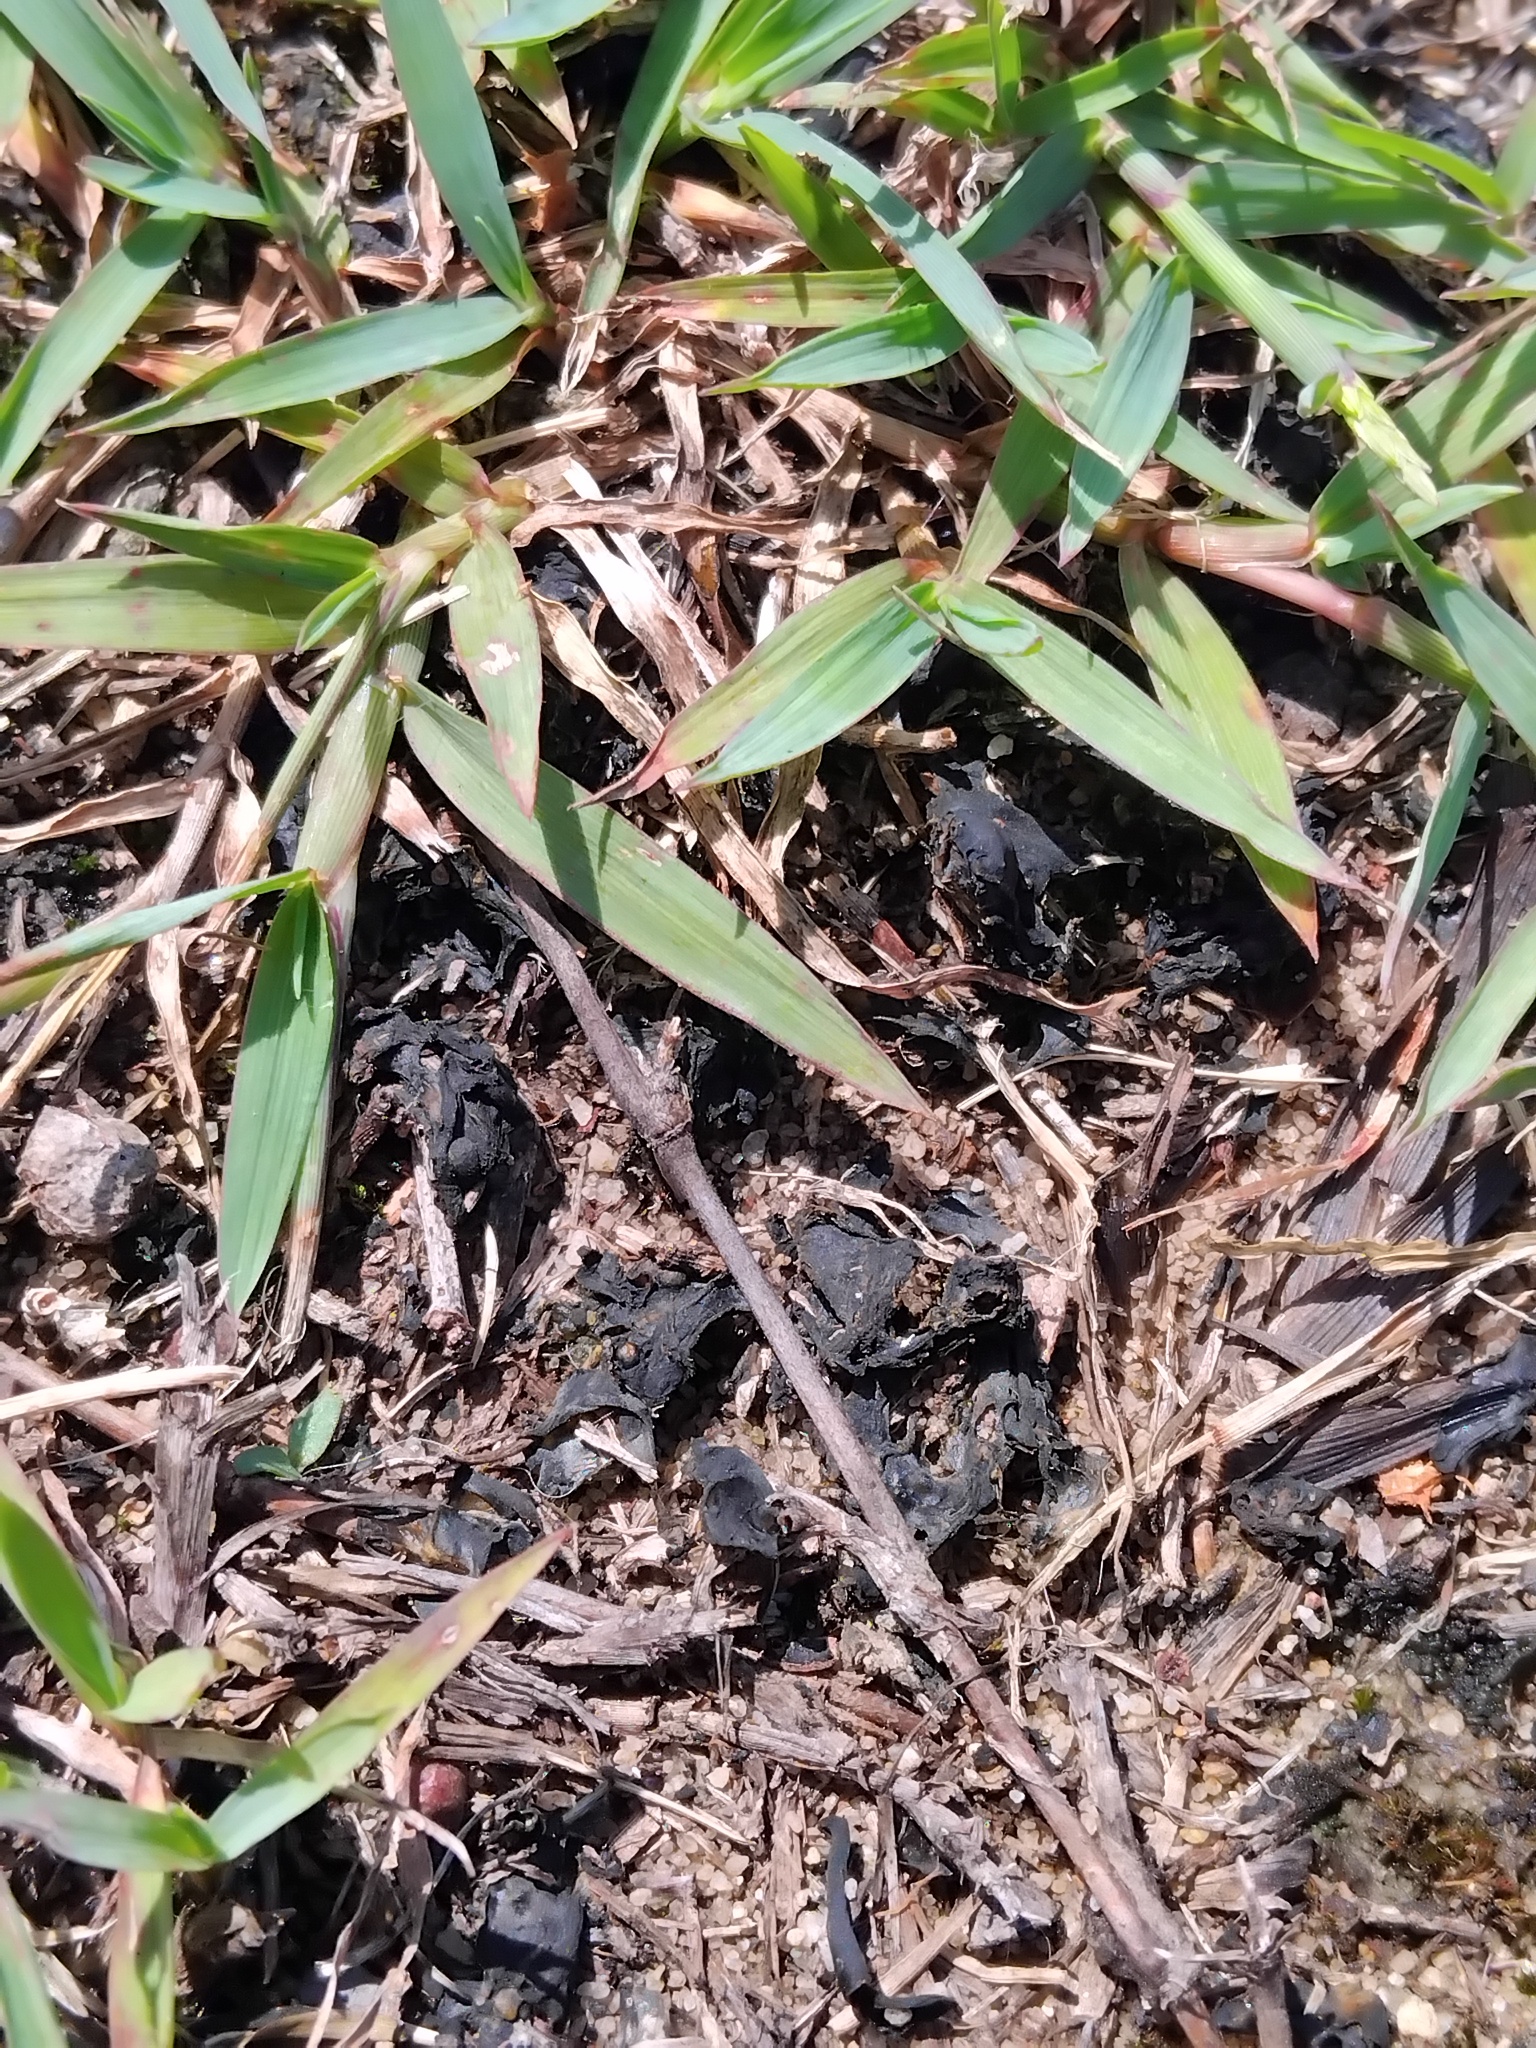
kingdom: Bacteria
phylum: Cyanobacteria
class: Cyanobacteriia
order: Cyanobacteriales
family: Nostocaceae
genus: Nostoc
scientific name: Nostoc commune
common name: Star jelly
